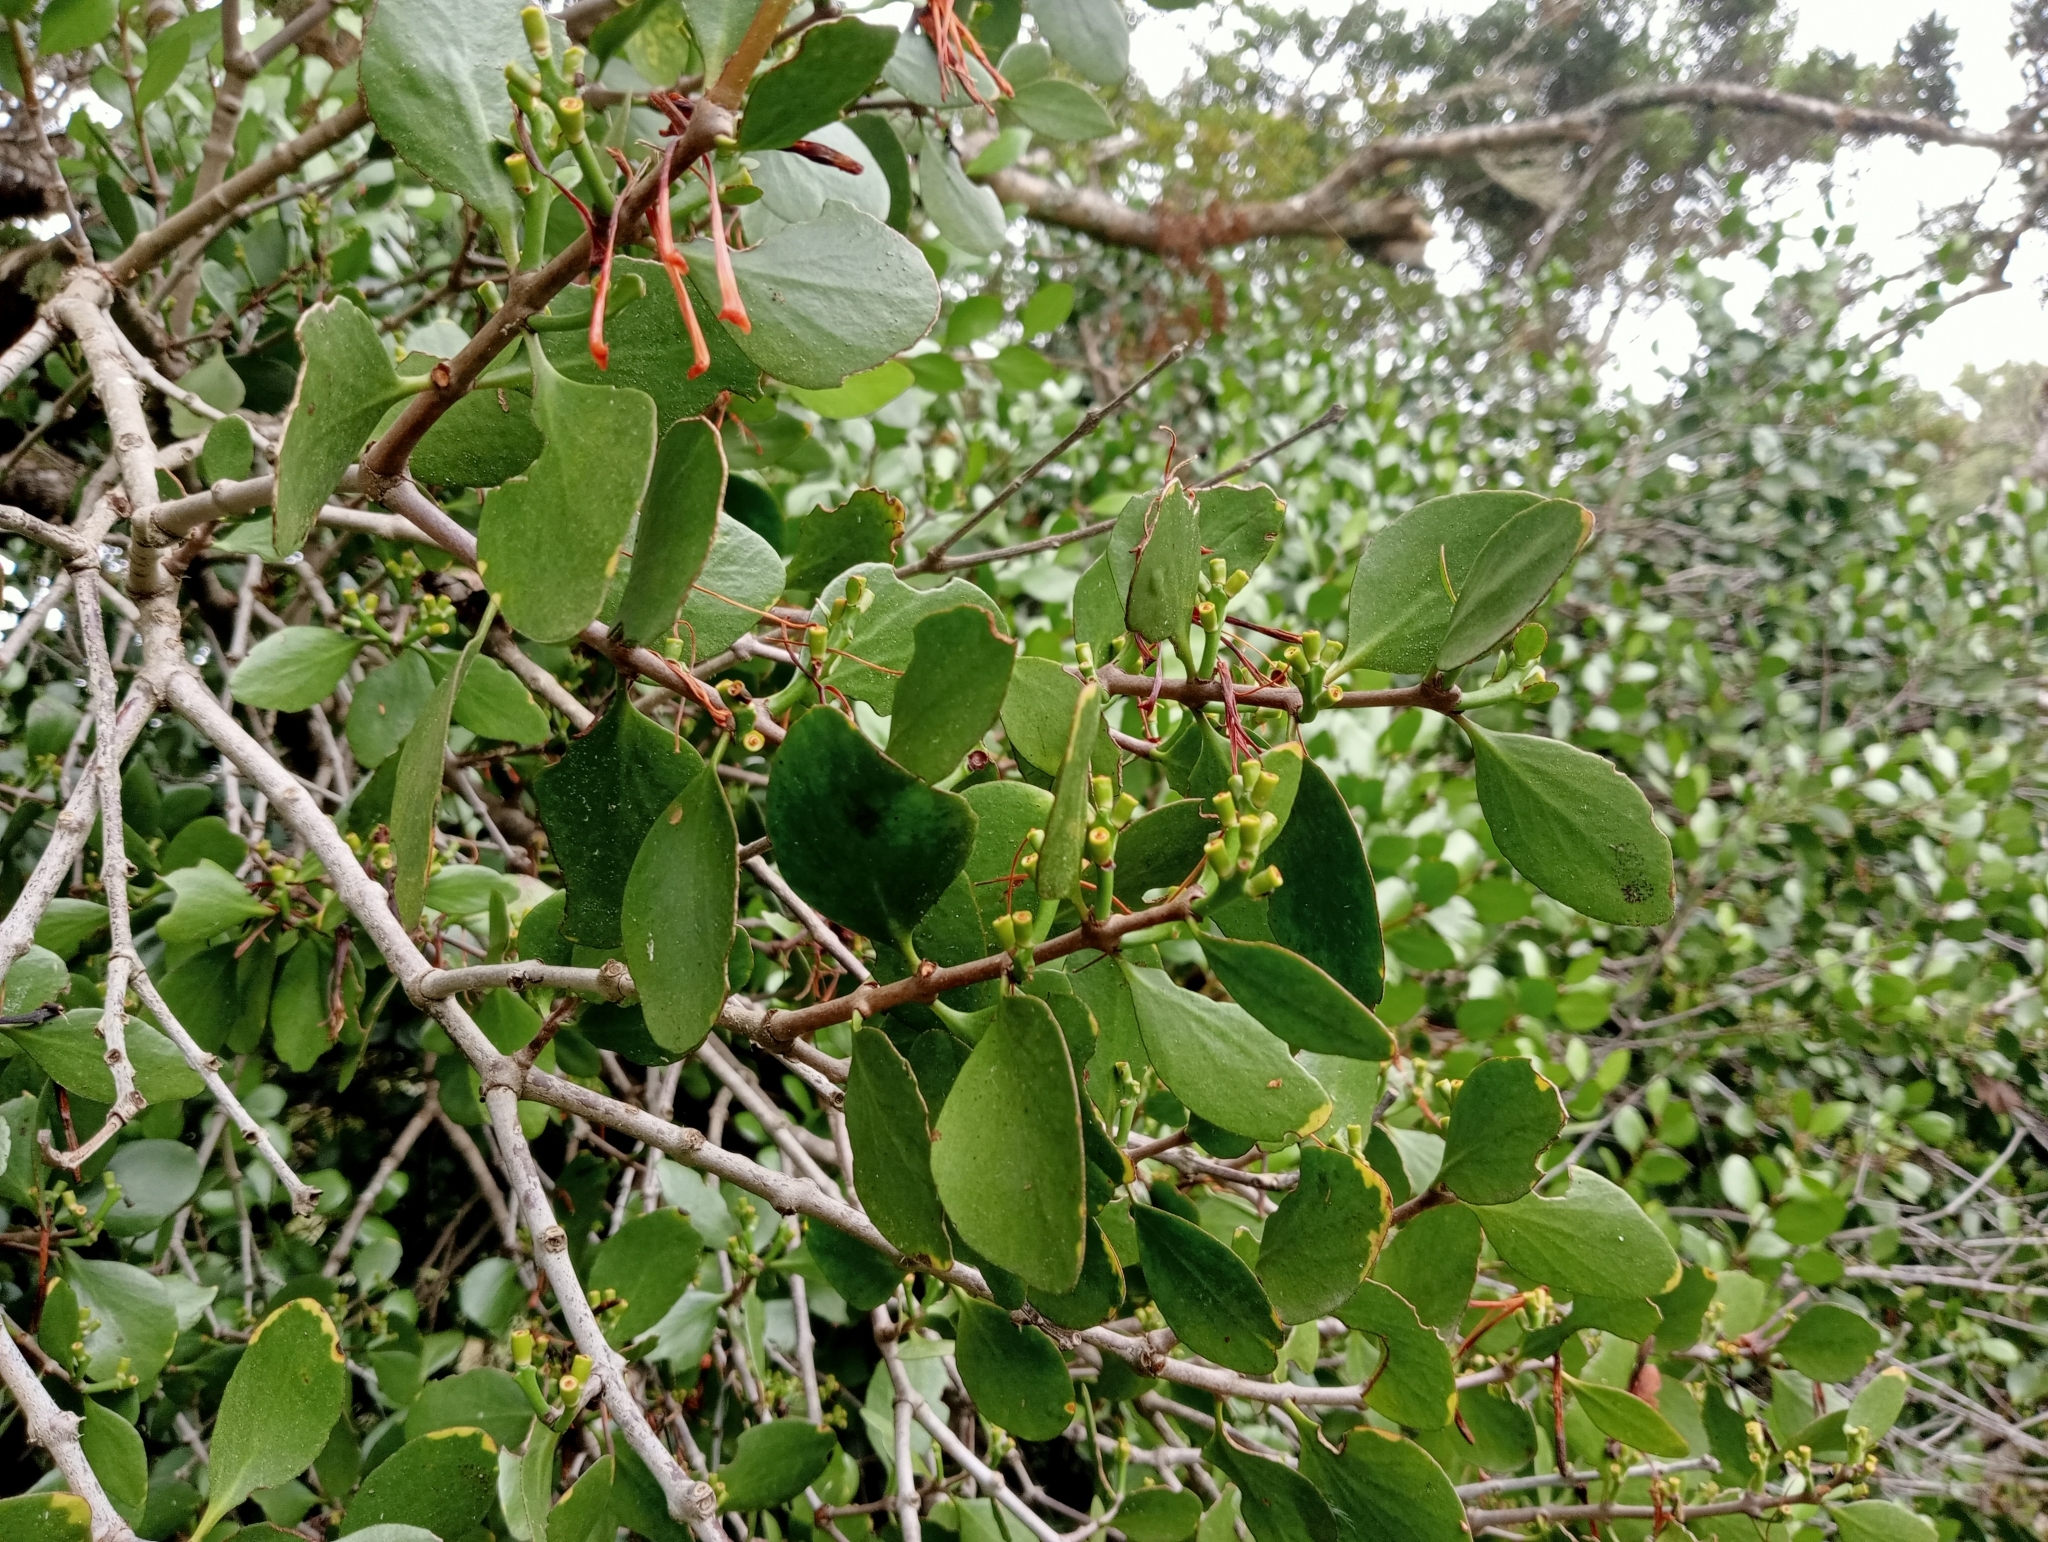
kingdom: Plantae
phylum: Tracheophyta
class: Magnoliopsida
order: Santalales
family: Loranthaceae
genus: Peraxilla
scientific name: Peraxilla colensoi
